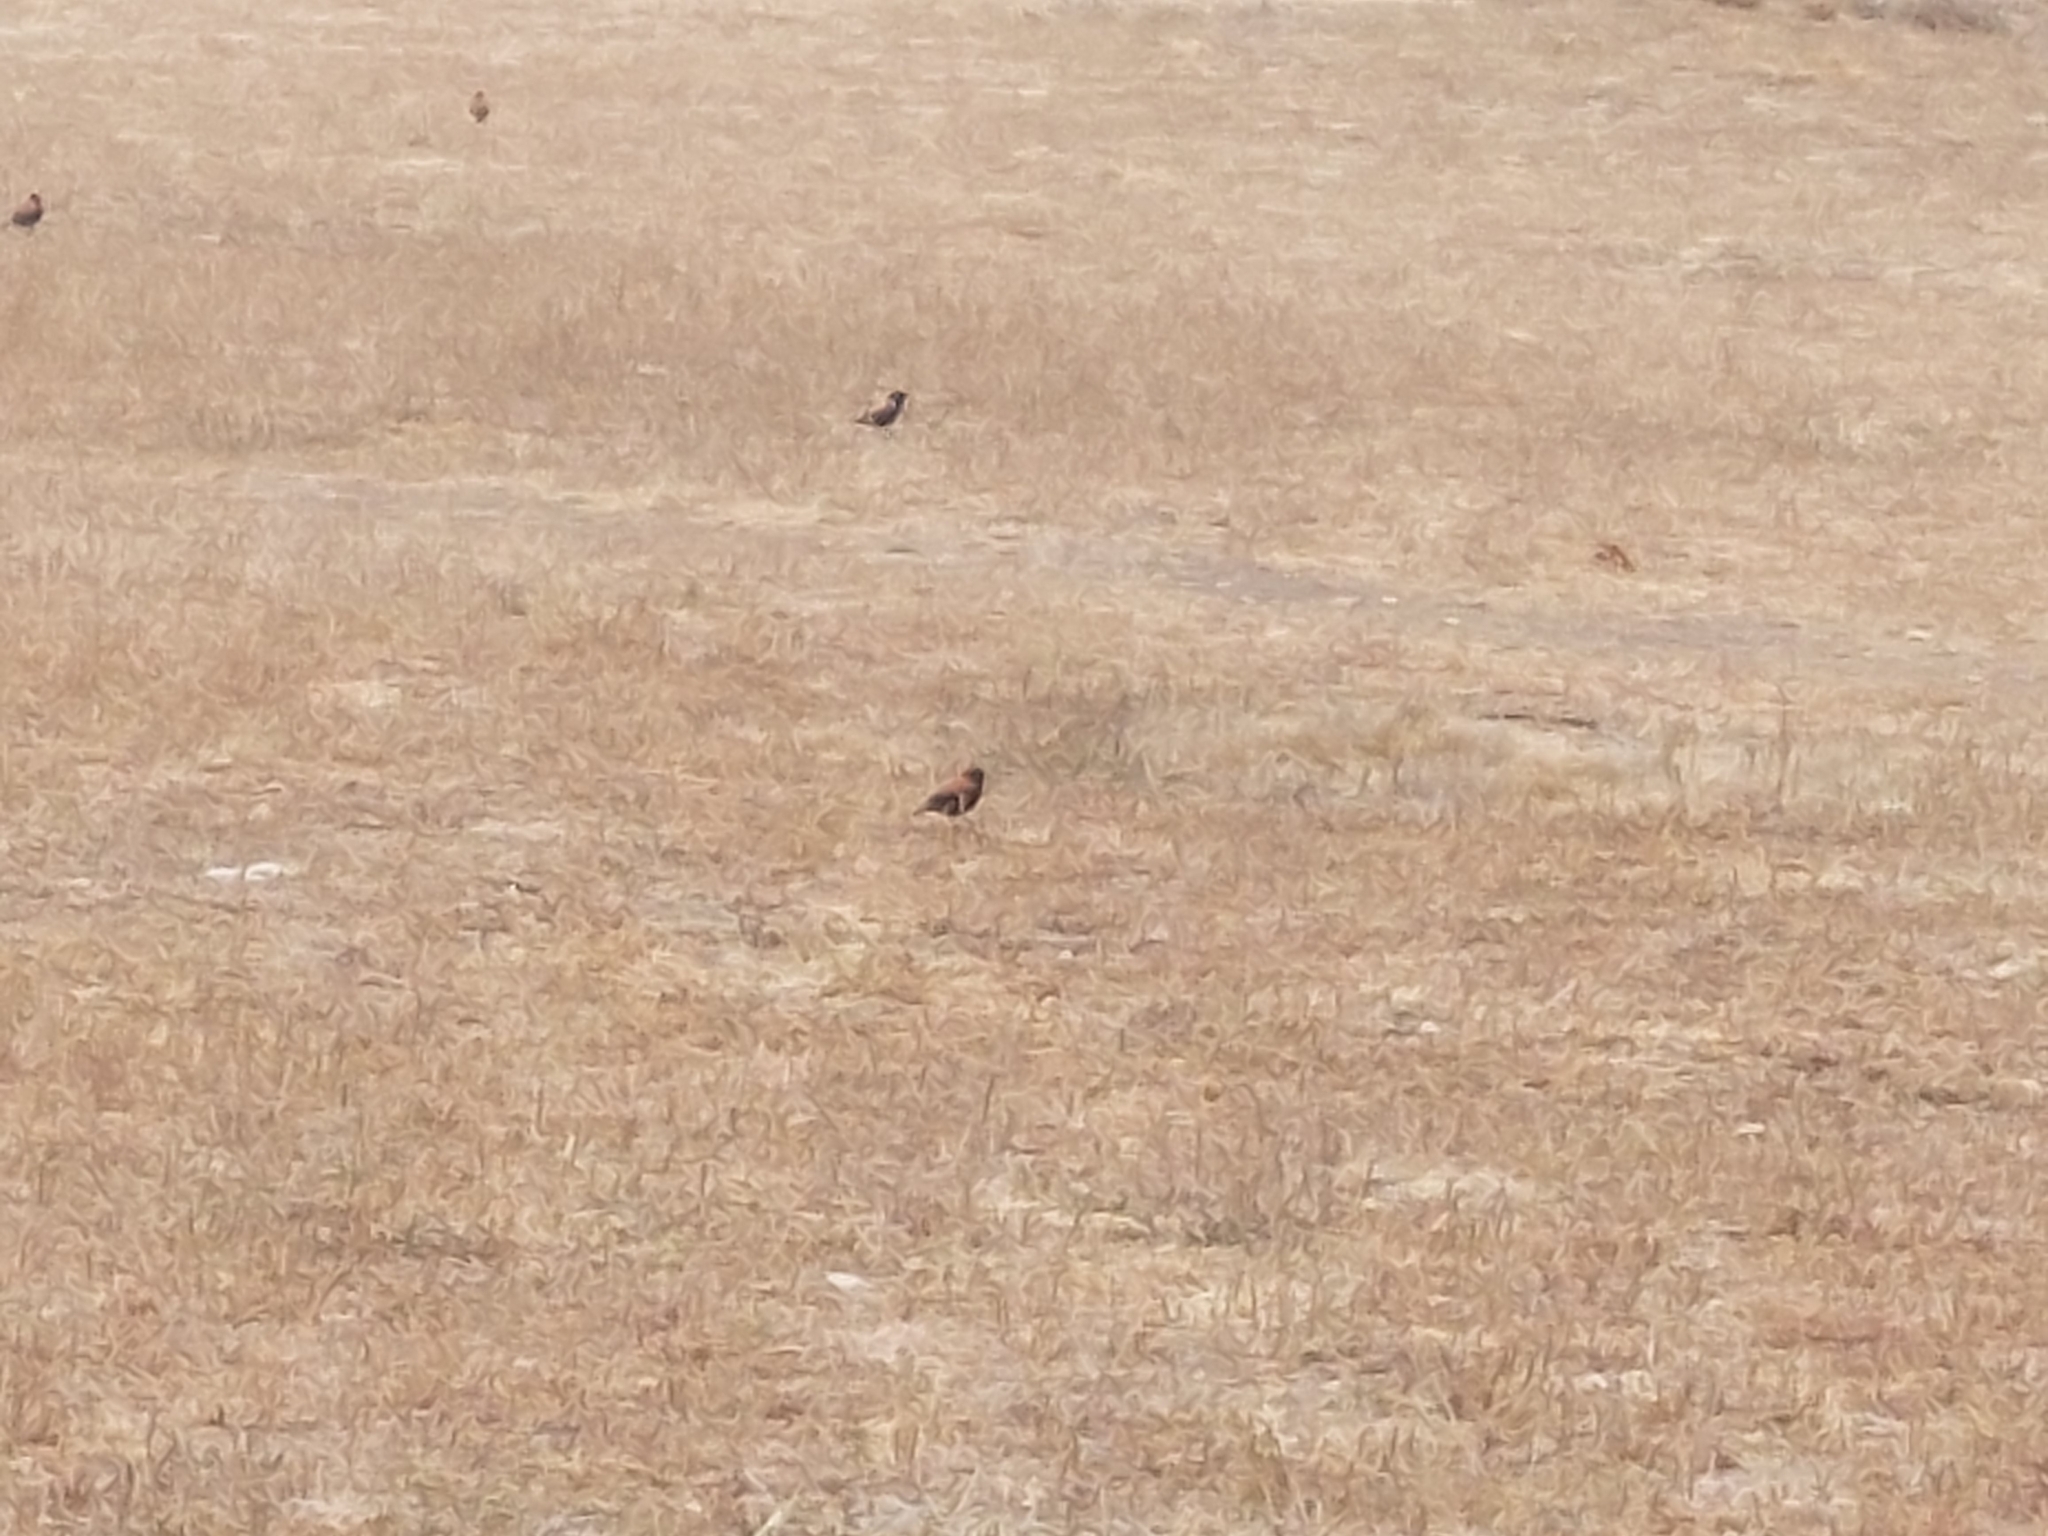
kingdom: Animalia
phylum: Chordata
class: Aves
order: Passeriformes
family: Tyrannidae
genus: Lessonia
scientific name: Lessonia rufa
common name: Austral negrito
